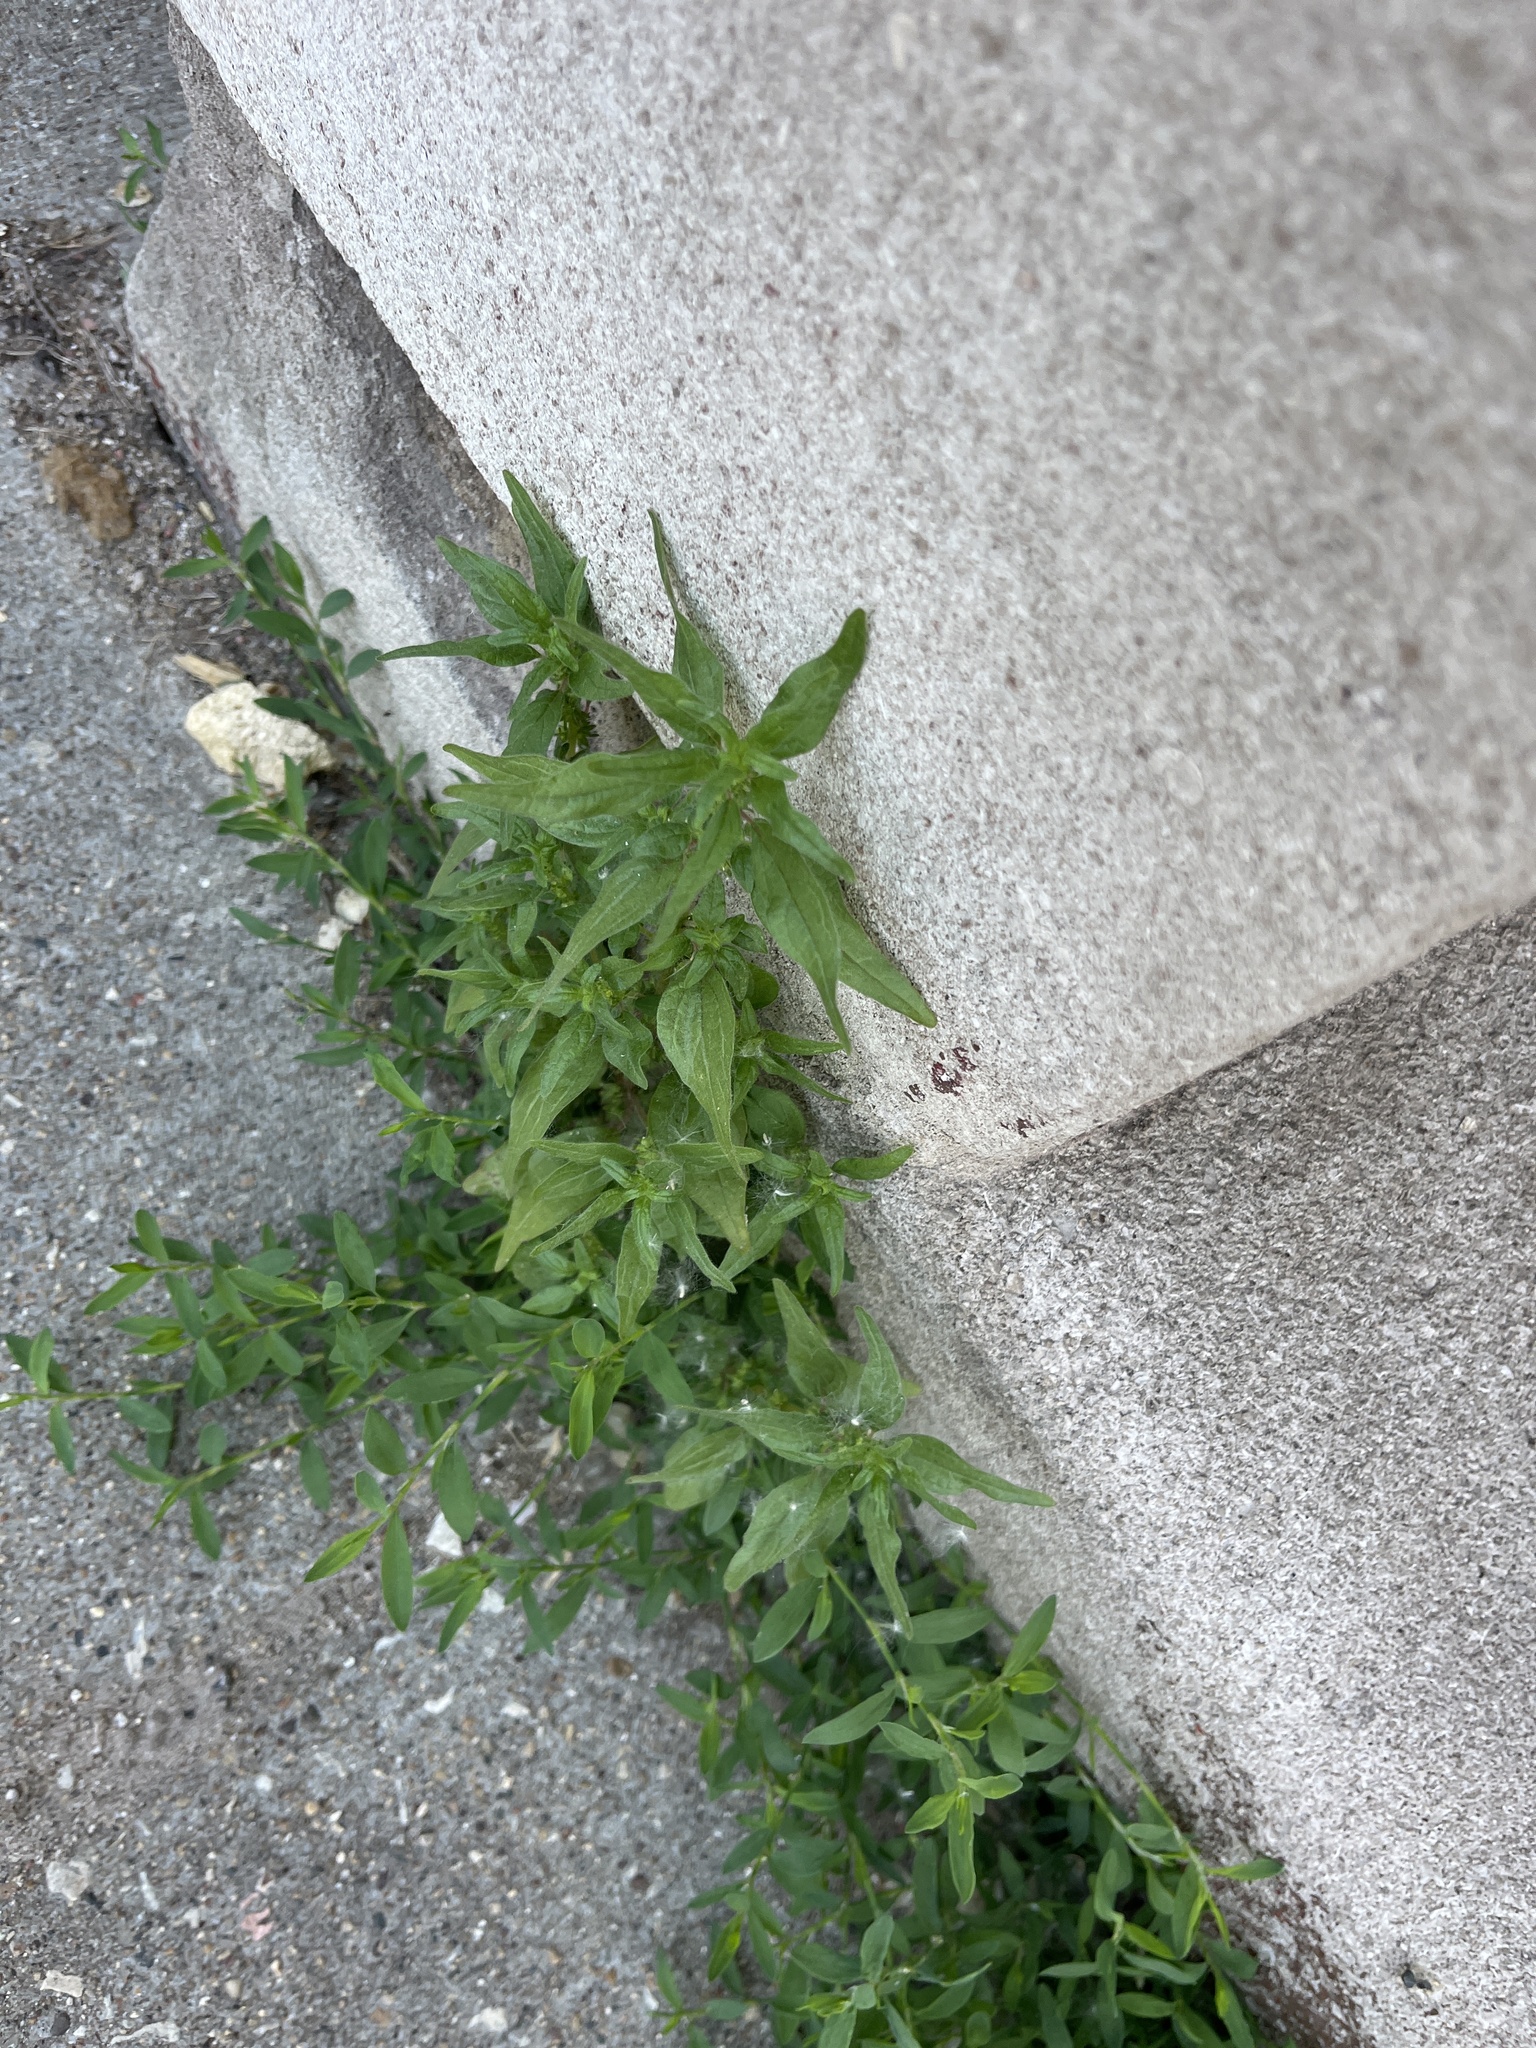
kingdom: Plantae
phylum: Tracheophyta
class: Magnoliopsida
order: Rosales
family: Urticaceae
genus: Parietaria
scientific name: Parietaria pensylvanica
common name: Pennsylvania pellitory
